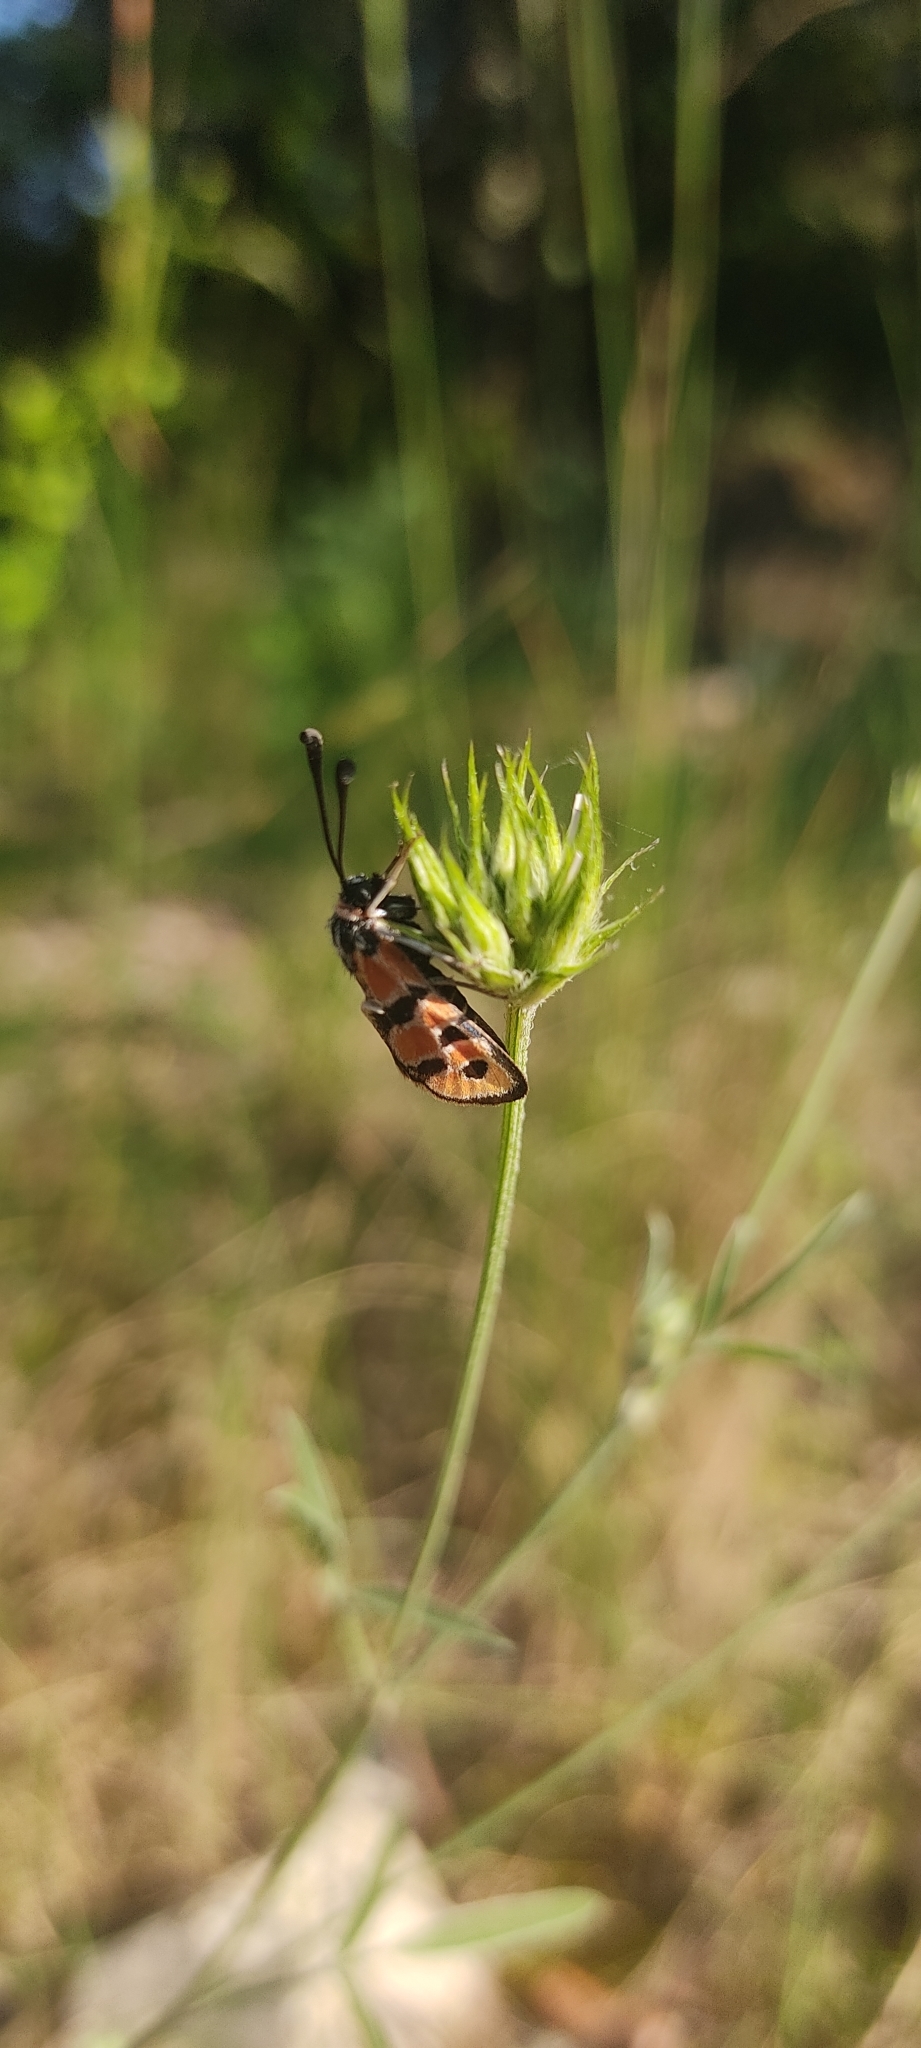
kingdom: Animalia
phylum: Arthropoda
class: Insecta
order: Lepidoptera
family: Zygaenidae
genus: Zygaena
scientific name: Zygaena fausta
